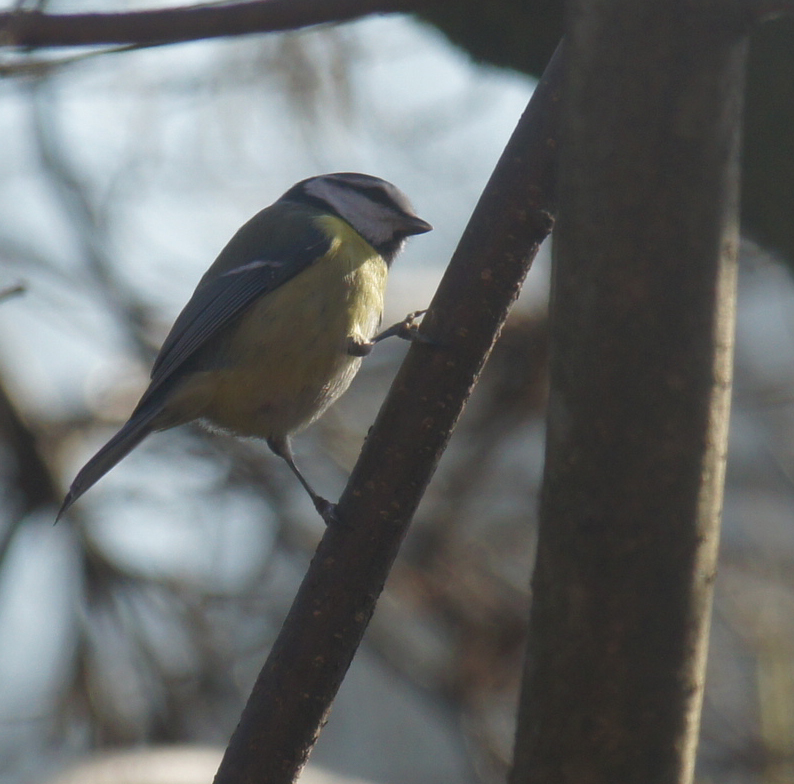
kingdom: Animalia
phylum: Chordata
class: Aves
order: Passeriformes
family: Paridae
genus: Cyanistes
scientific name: Cyanistes caeruleus
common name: Eurasian blue tit
